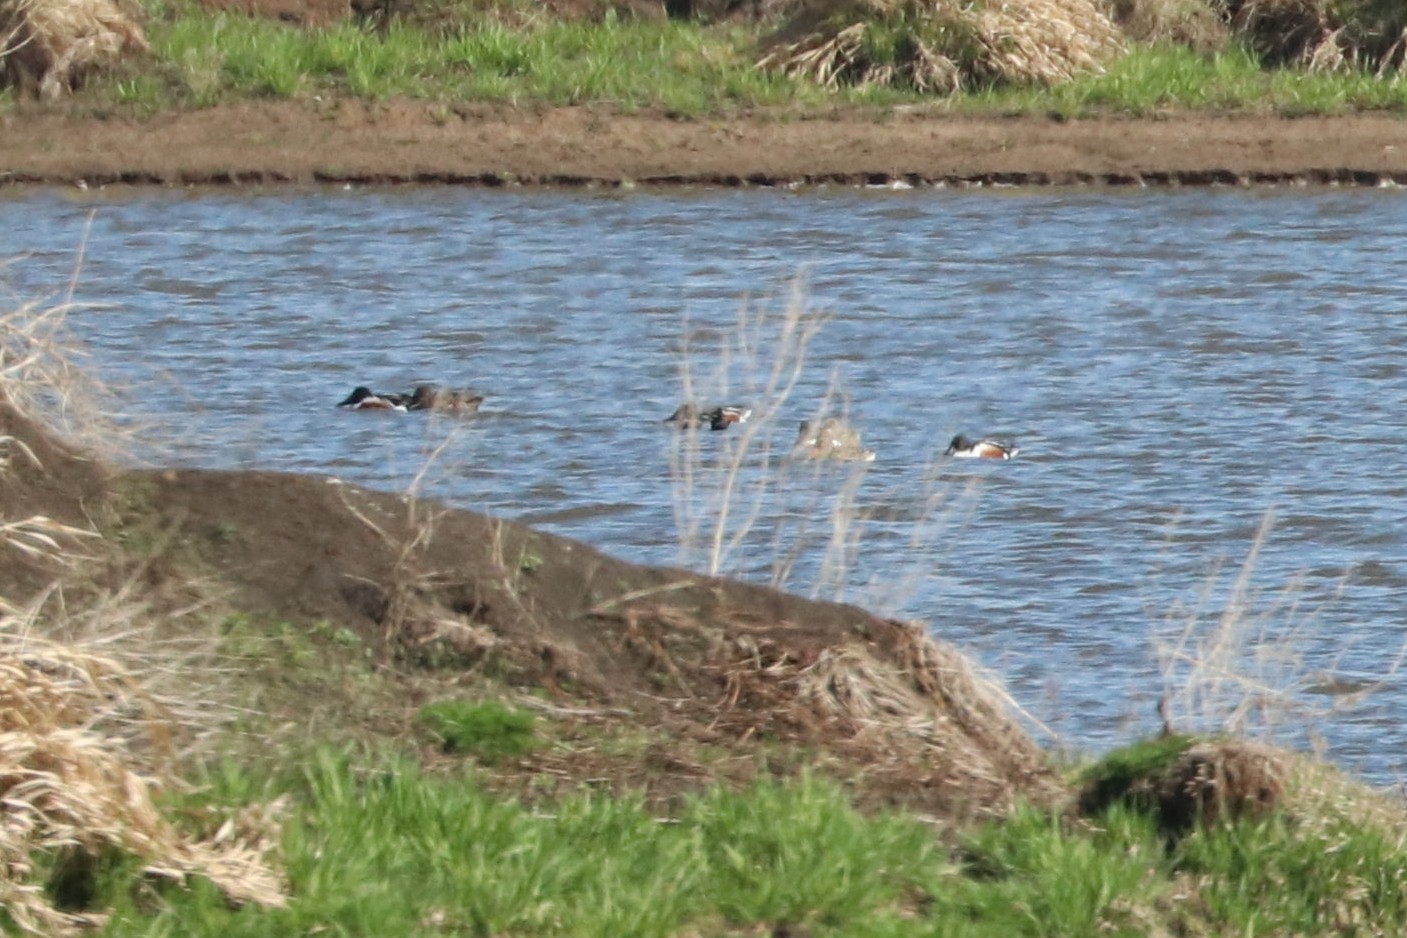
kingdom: Animalia
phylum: Chordata
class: Aves
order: Anseriformes
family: Anatidae
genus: Spatula
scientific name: Spatula clypeata
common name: Northern shoveler
